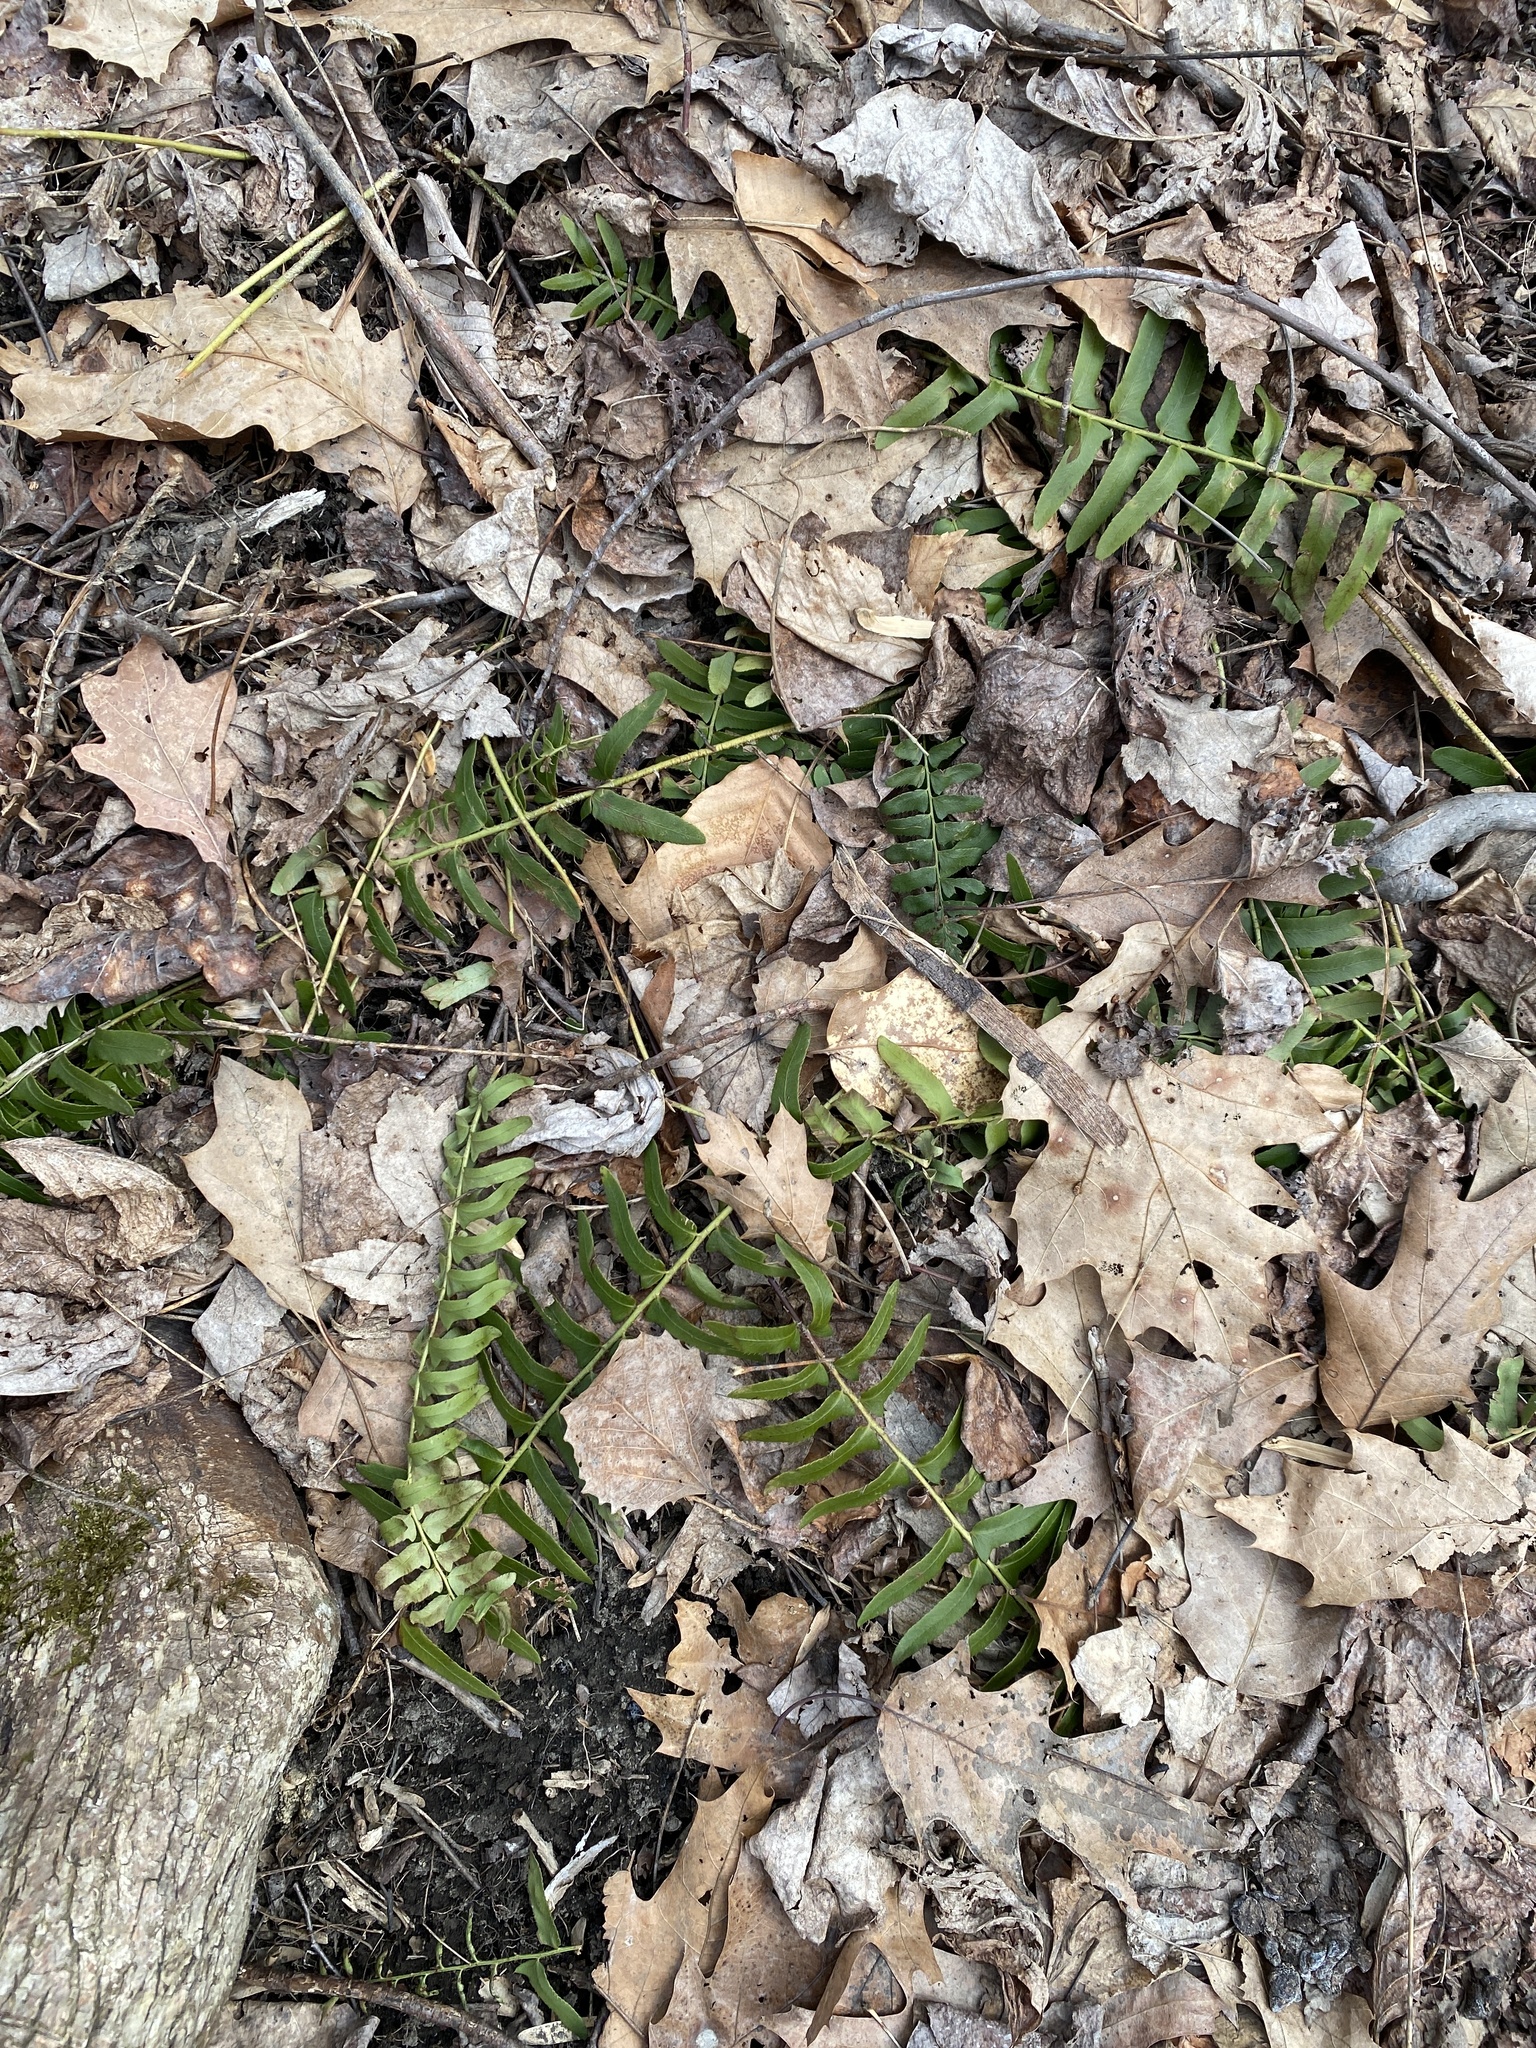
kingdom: Plantae
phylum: Tracheophyta
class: Polypodiopsida
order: Polypodiales
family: Dryopteridaceae
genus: Polystichum
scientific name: Polystichum acrostichoides
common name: Christmas fern
